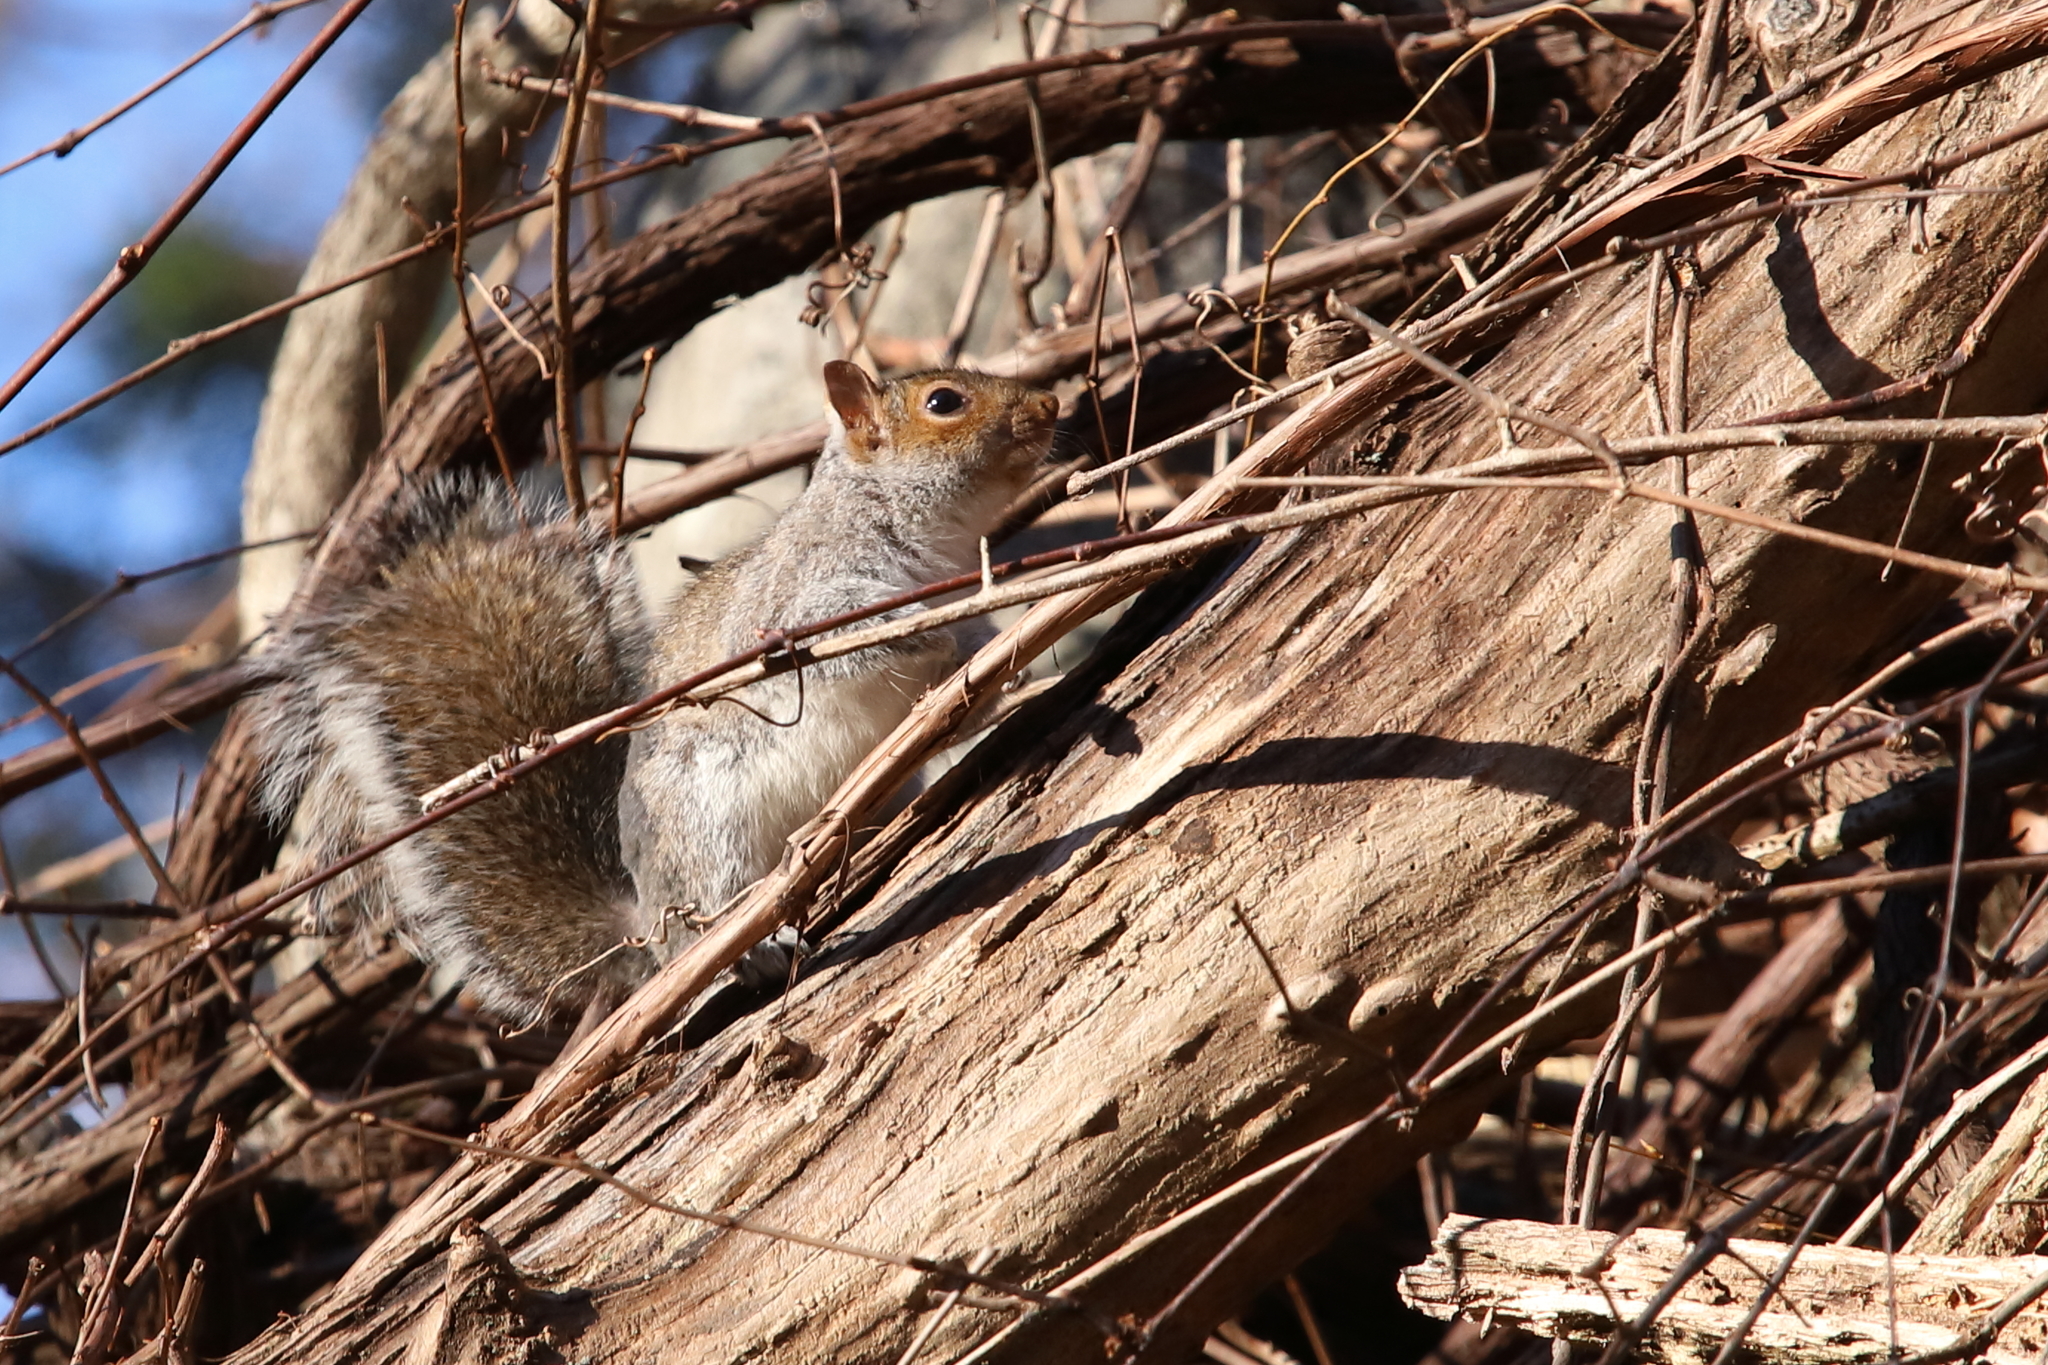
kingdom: Animalia
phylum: Chordata
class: Mammalia
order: Rodentia
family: Sciuridae
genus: Sciurus
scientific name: Sciurus carolinensis
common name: Eastern gray squirrel
